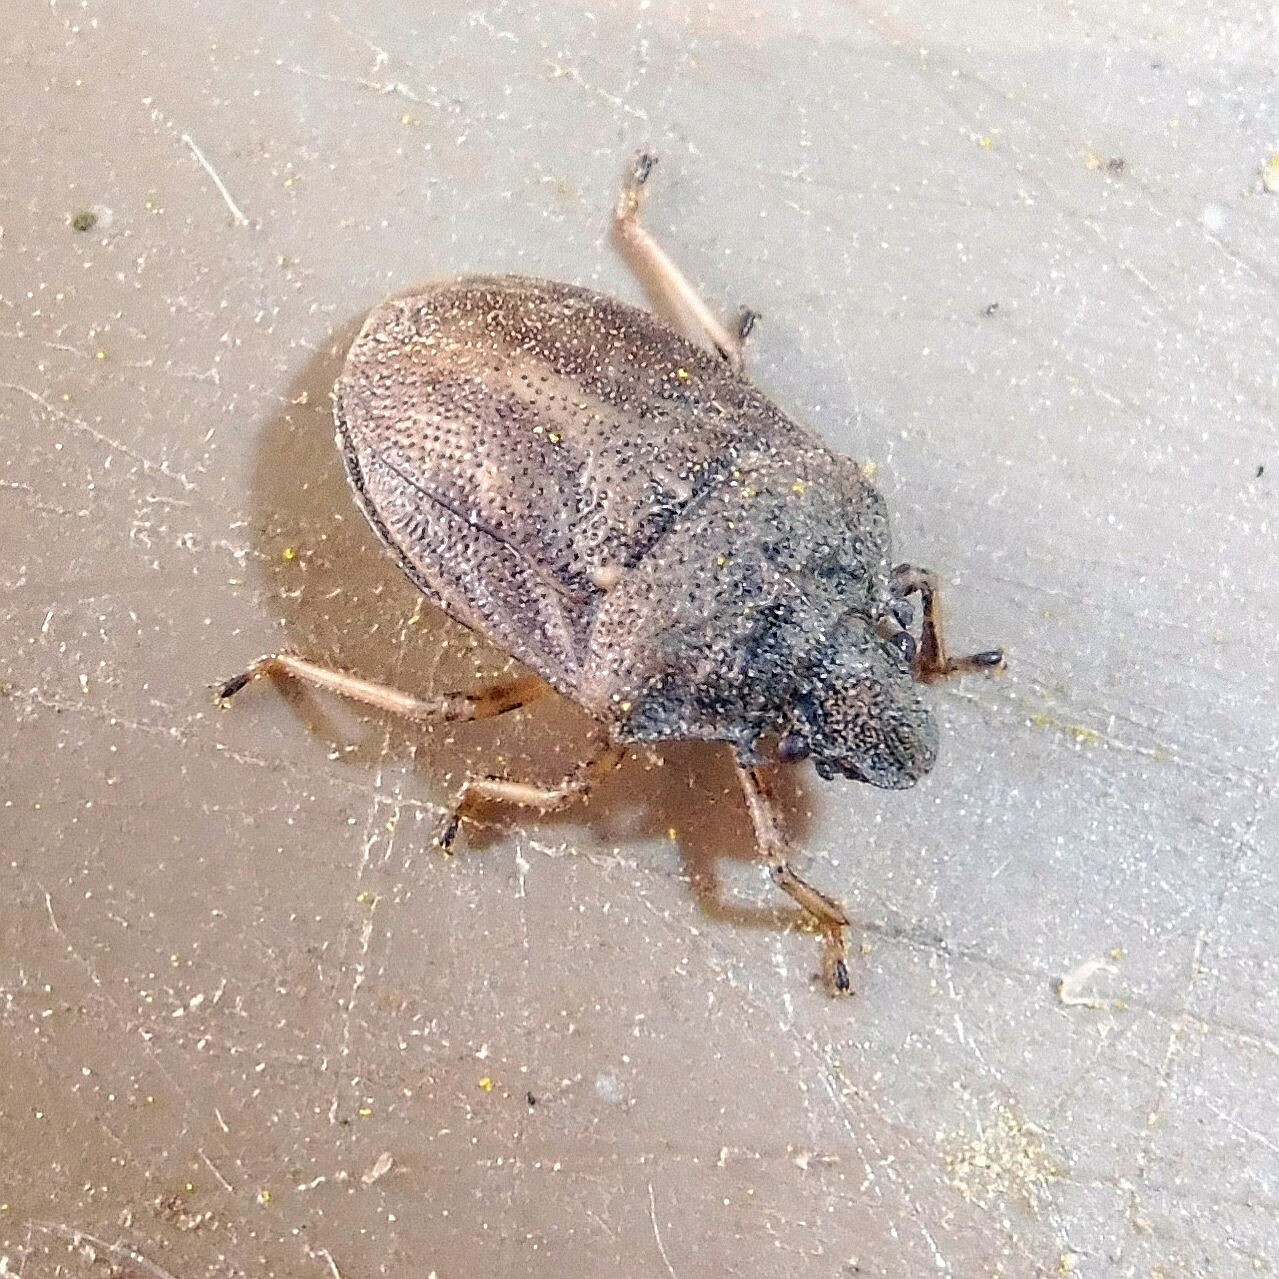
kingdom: Animalia
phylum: Arthropoda
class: Insecta
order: Hemiptera
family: Pentatomidae
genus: Podops
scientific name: Podops inunctus
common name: Turtle bug
